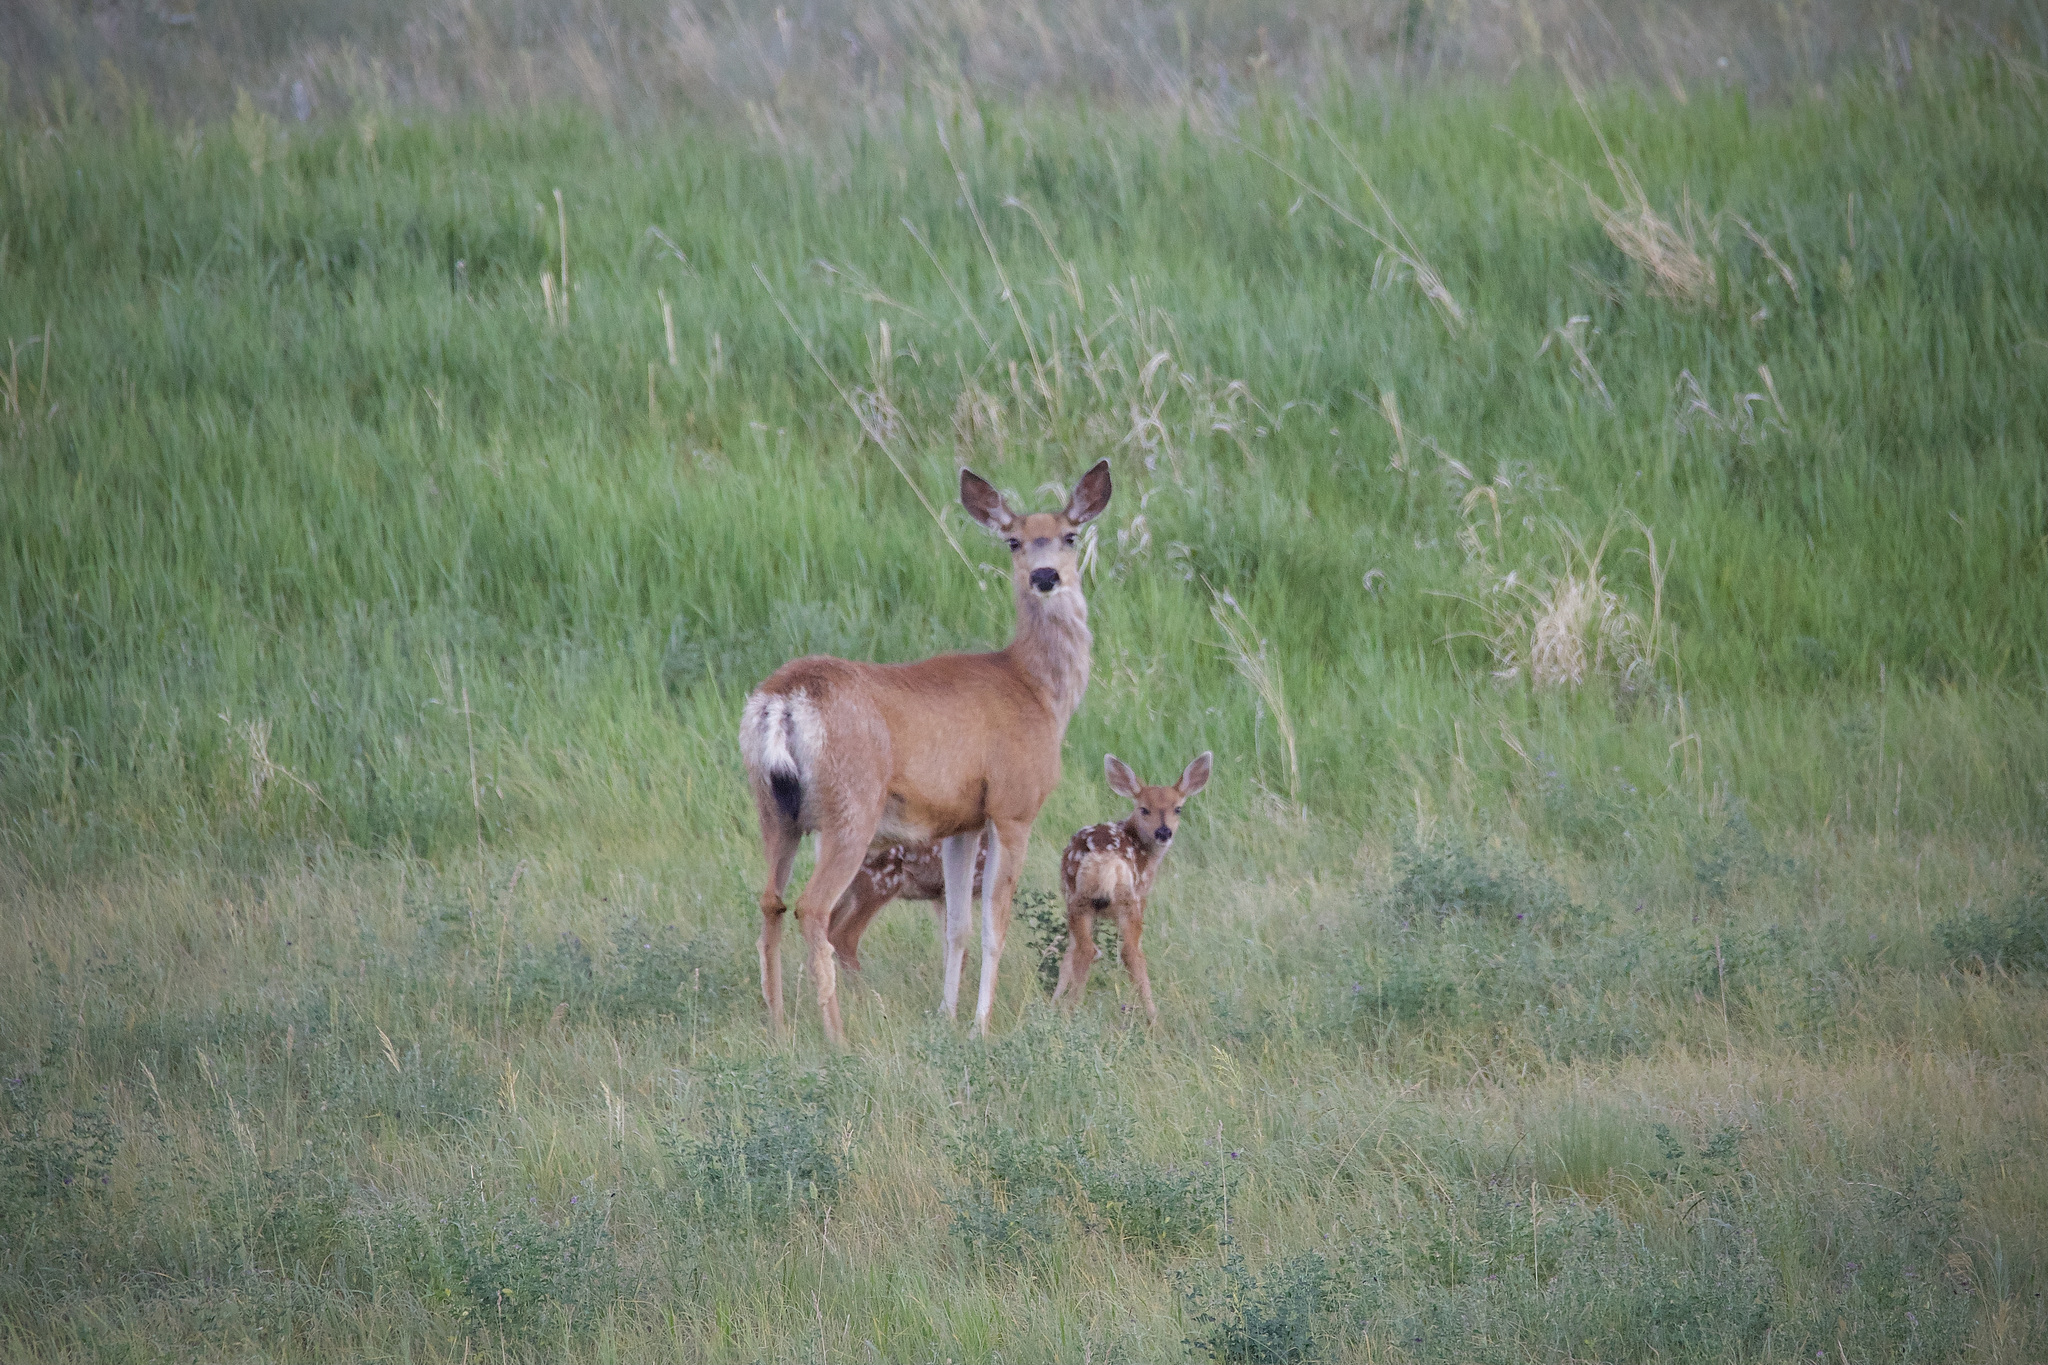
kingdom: Animalia
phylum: Chordata
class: Mammalia
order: Artiodactyla
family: Cervidae
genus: Odocoileus
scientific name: Odocoileus hemionus
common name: Mule deer
